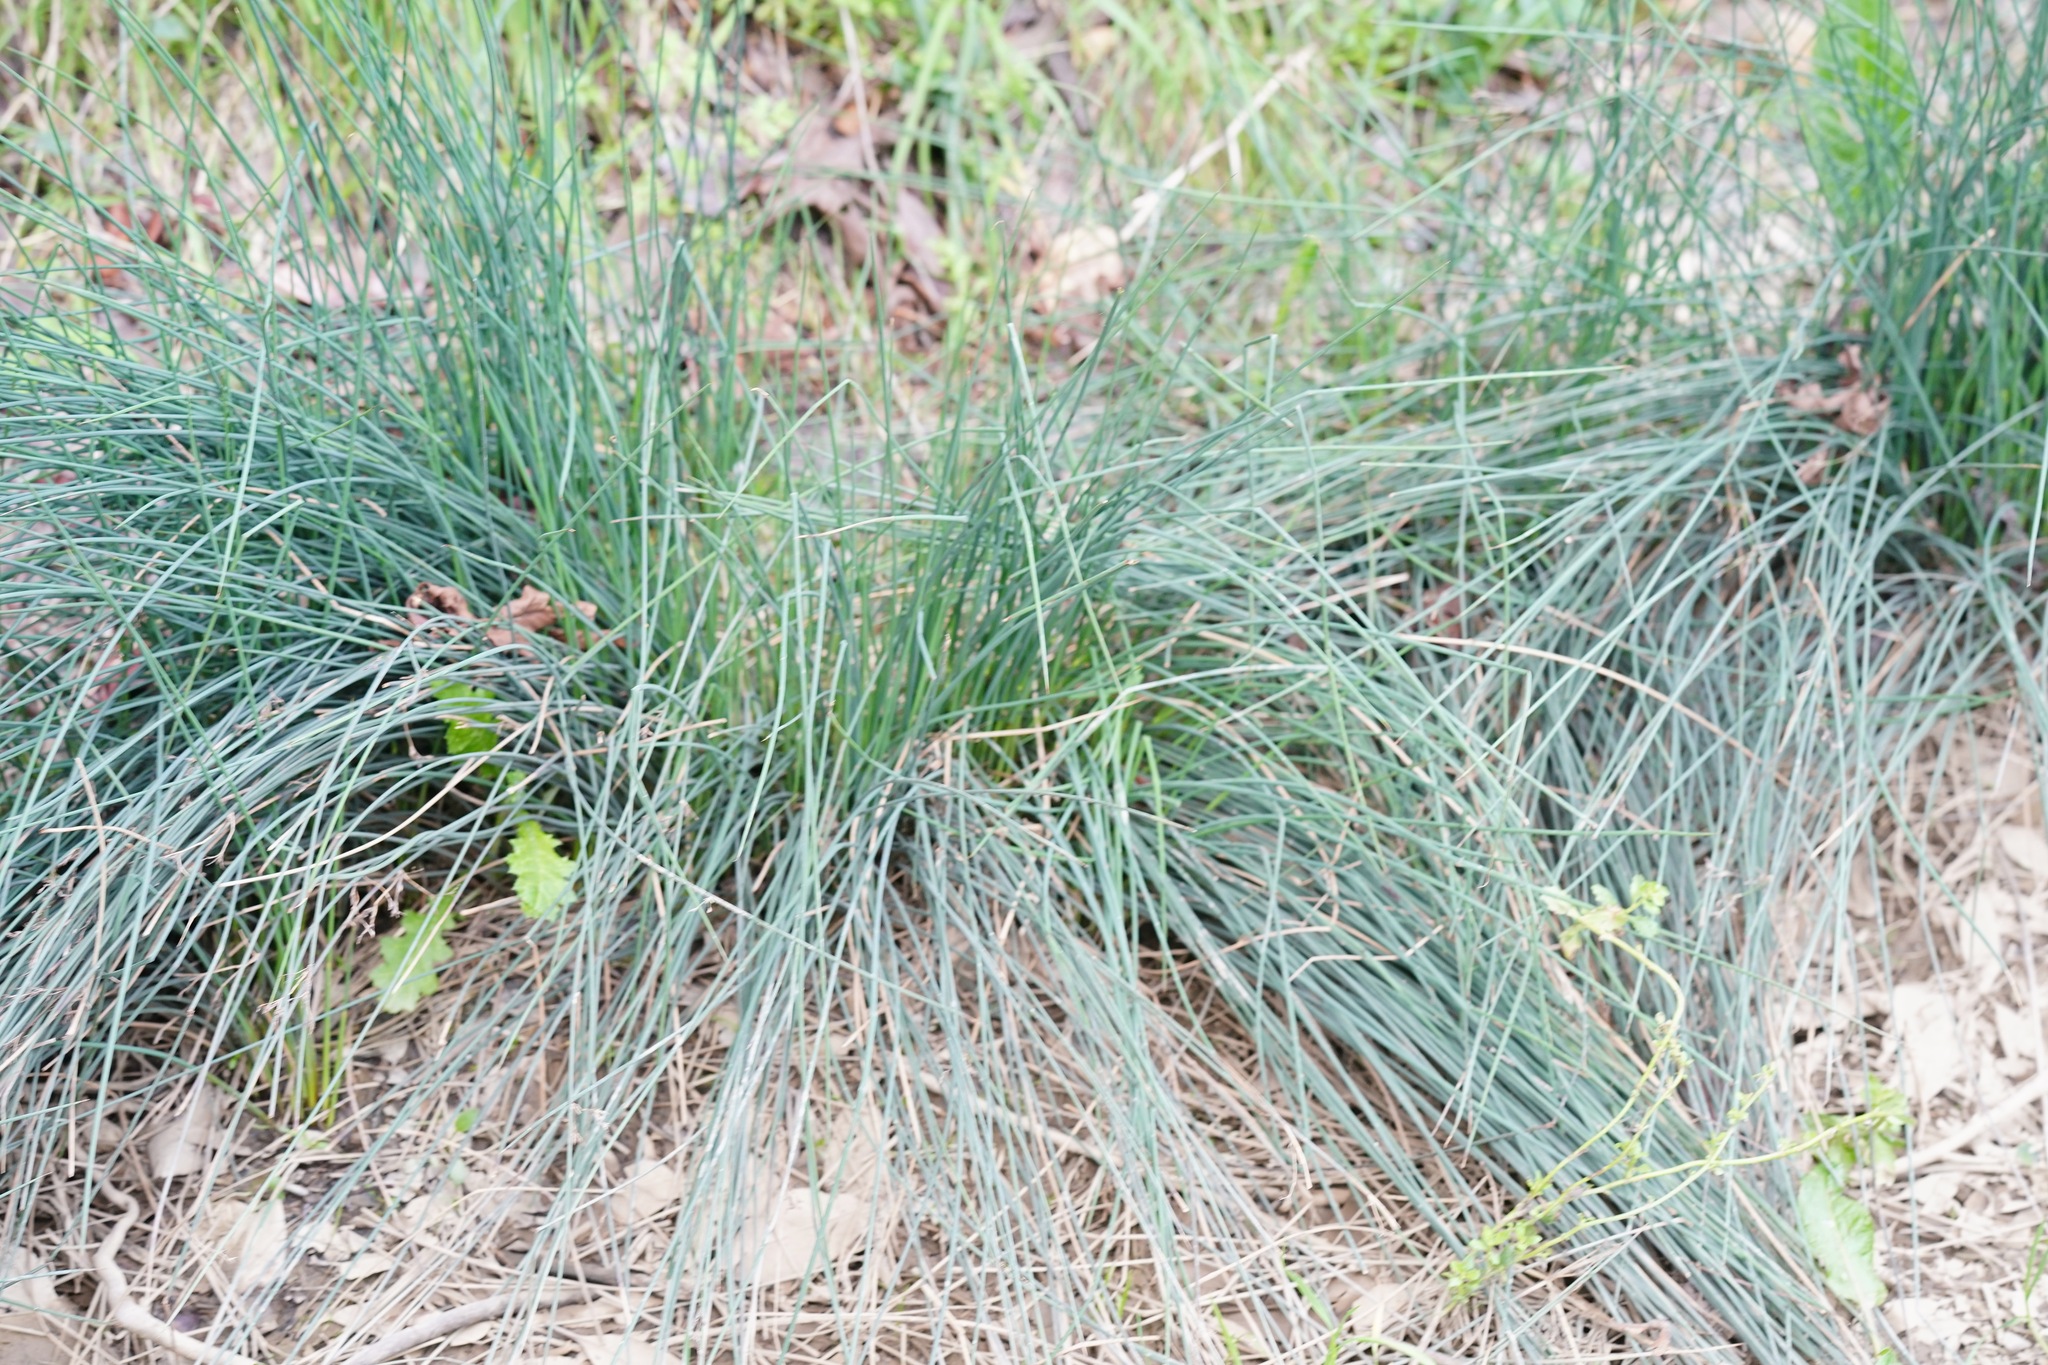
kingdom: Plantae
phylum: Tracheophyta
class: Liliopsida
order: Poales
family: Juncaceae
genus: Juncus
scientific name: Juncus patens
